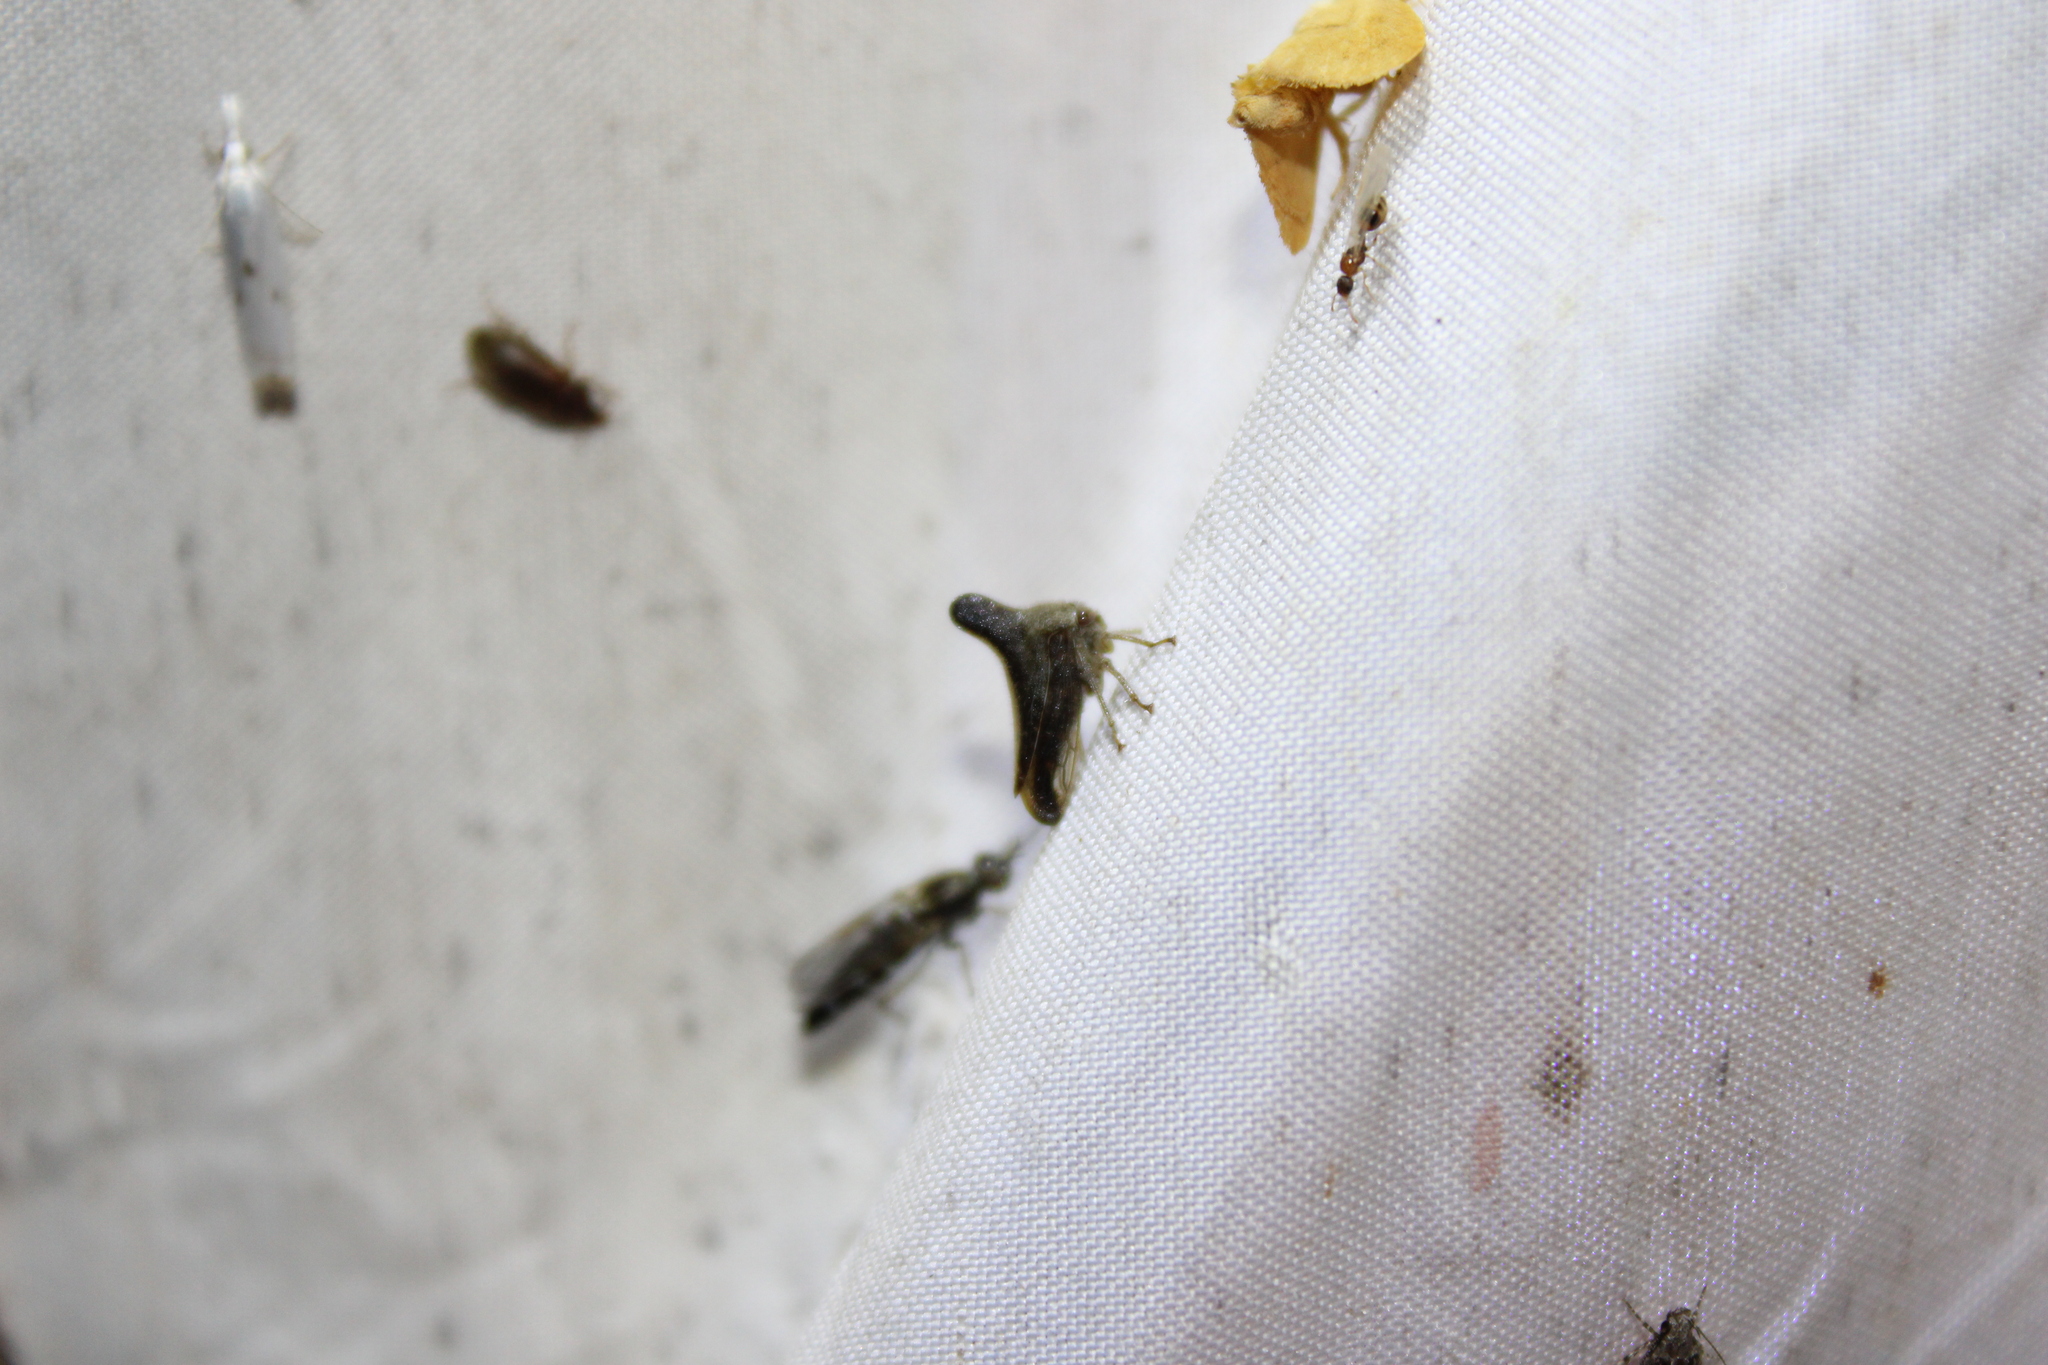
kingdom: Animalia
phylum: Arthropoda
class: Insecta
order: Hemiptera
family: Membracidae
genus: Glossonotus
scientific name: Glossonotus turriculata
